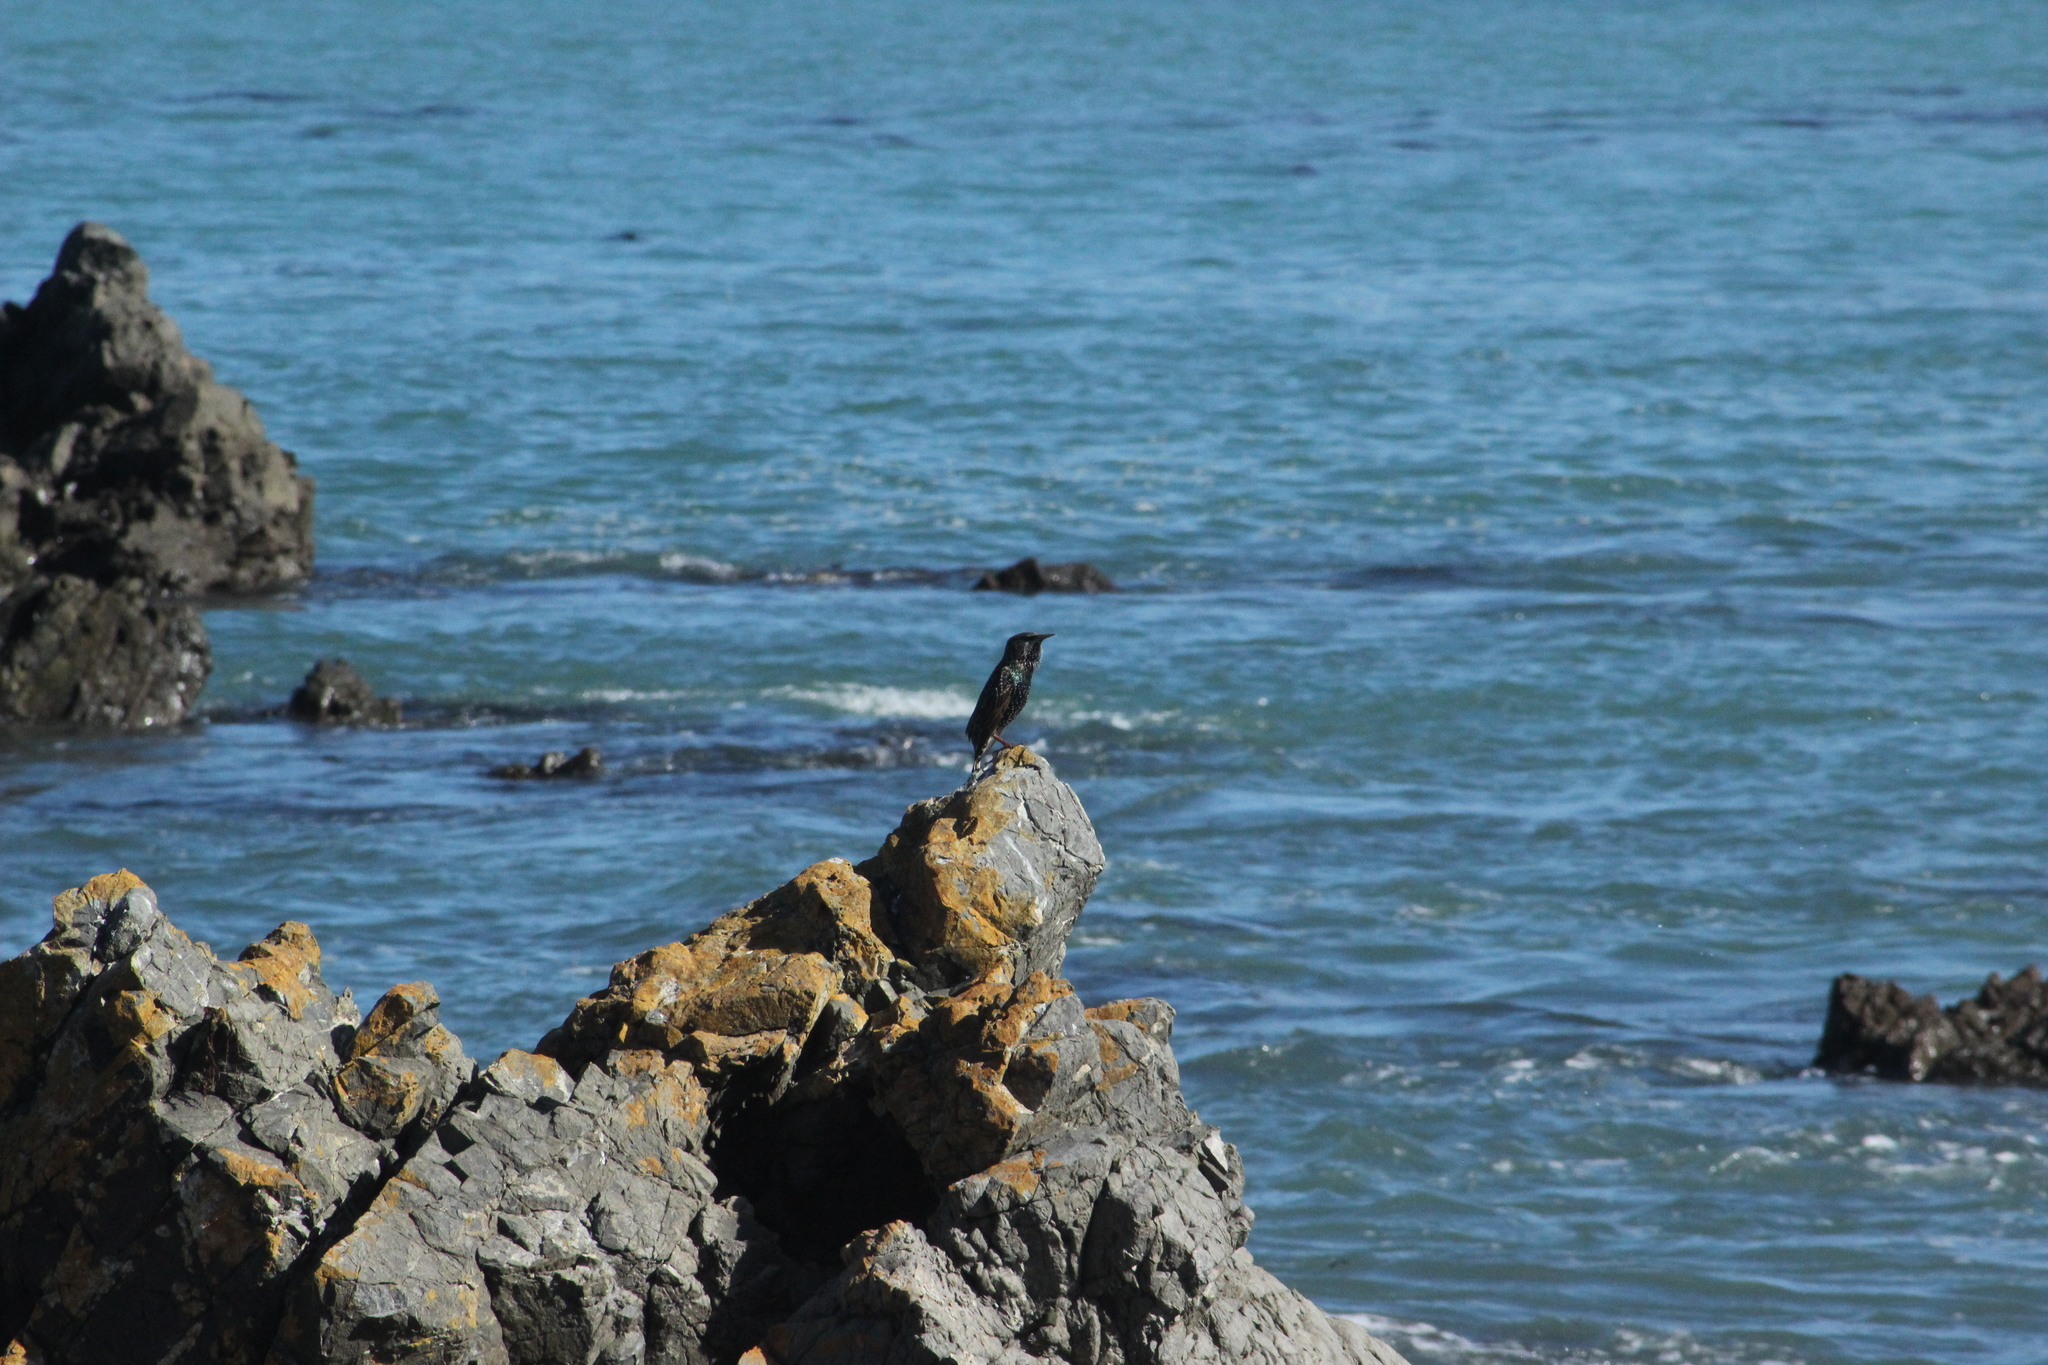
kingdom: Animalia
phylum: Chordata
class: Aves
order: Passeriformes
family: Sturnidae
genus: Sturnus
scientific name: Sturnus vulgaris
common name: Common starling
